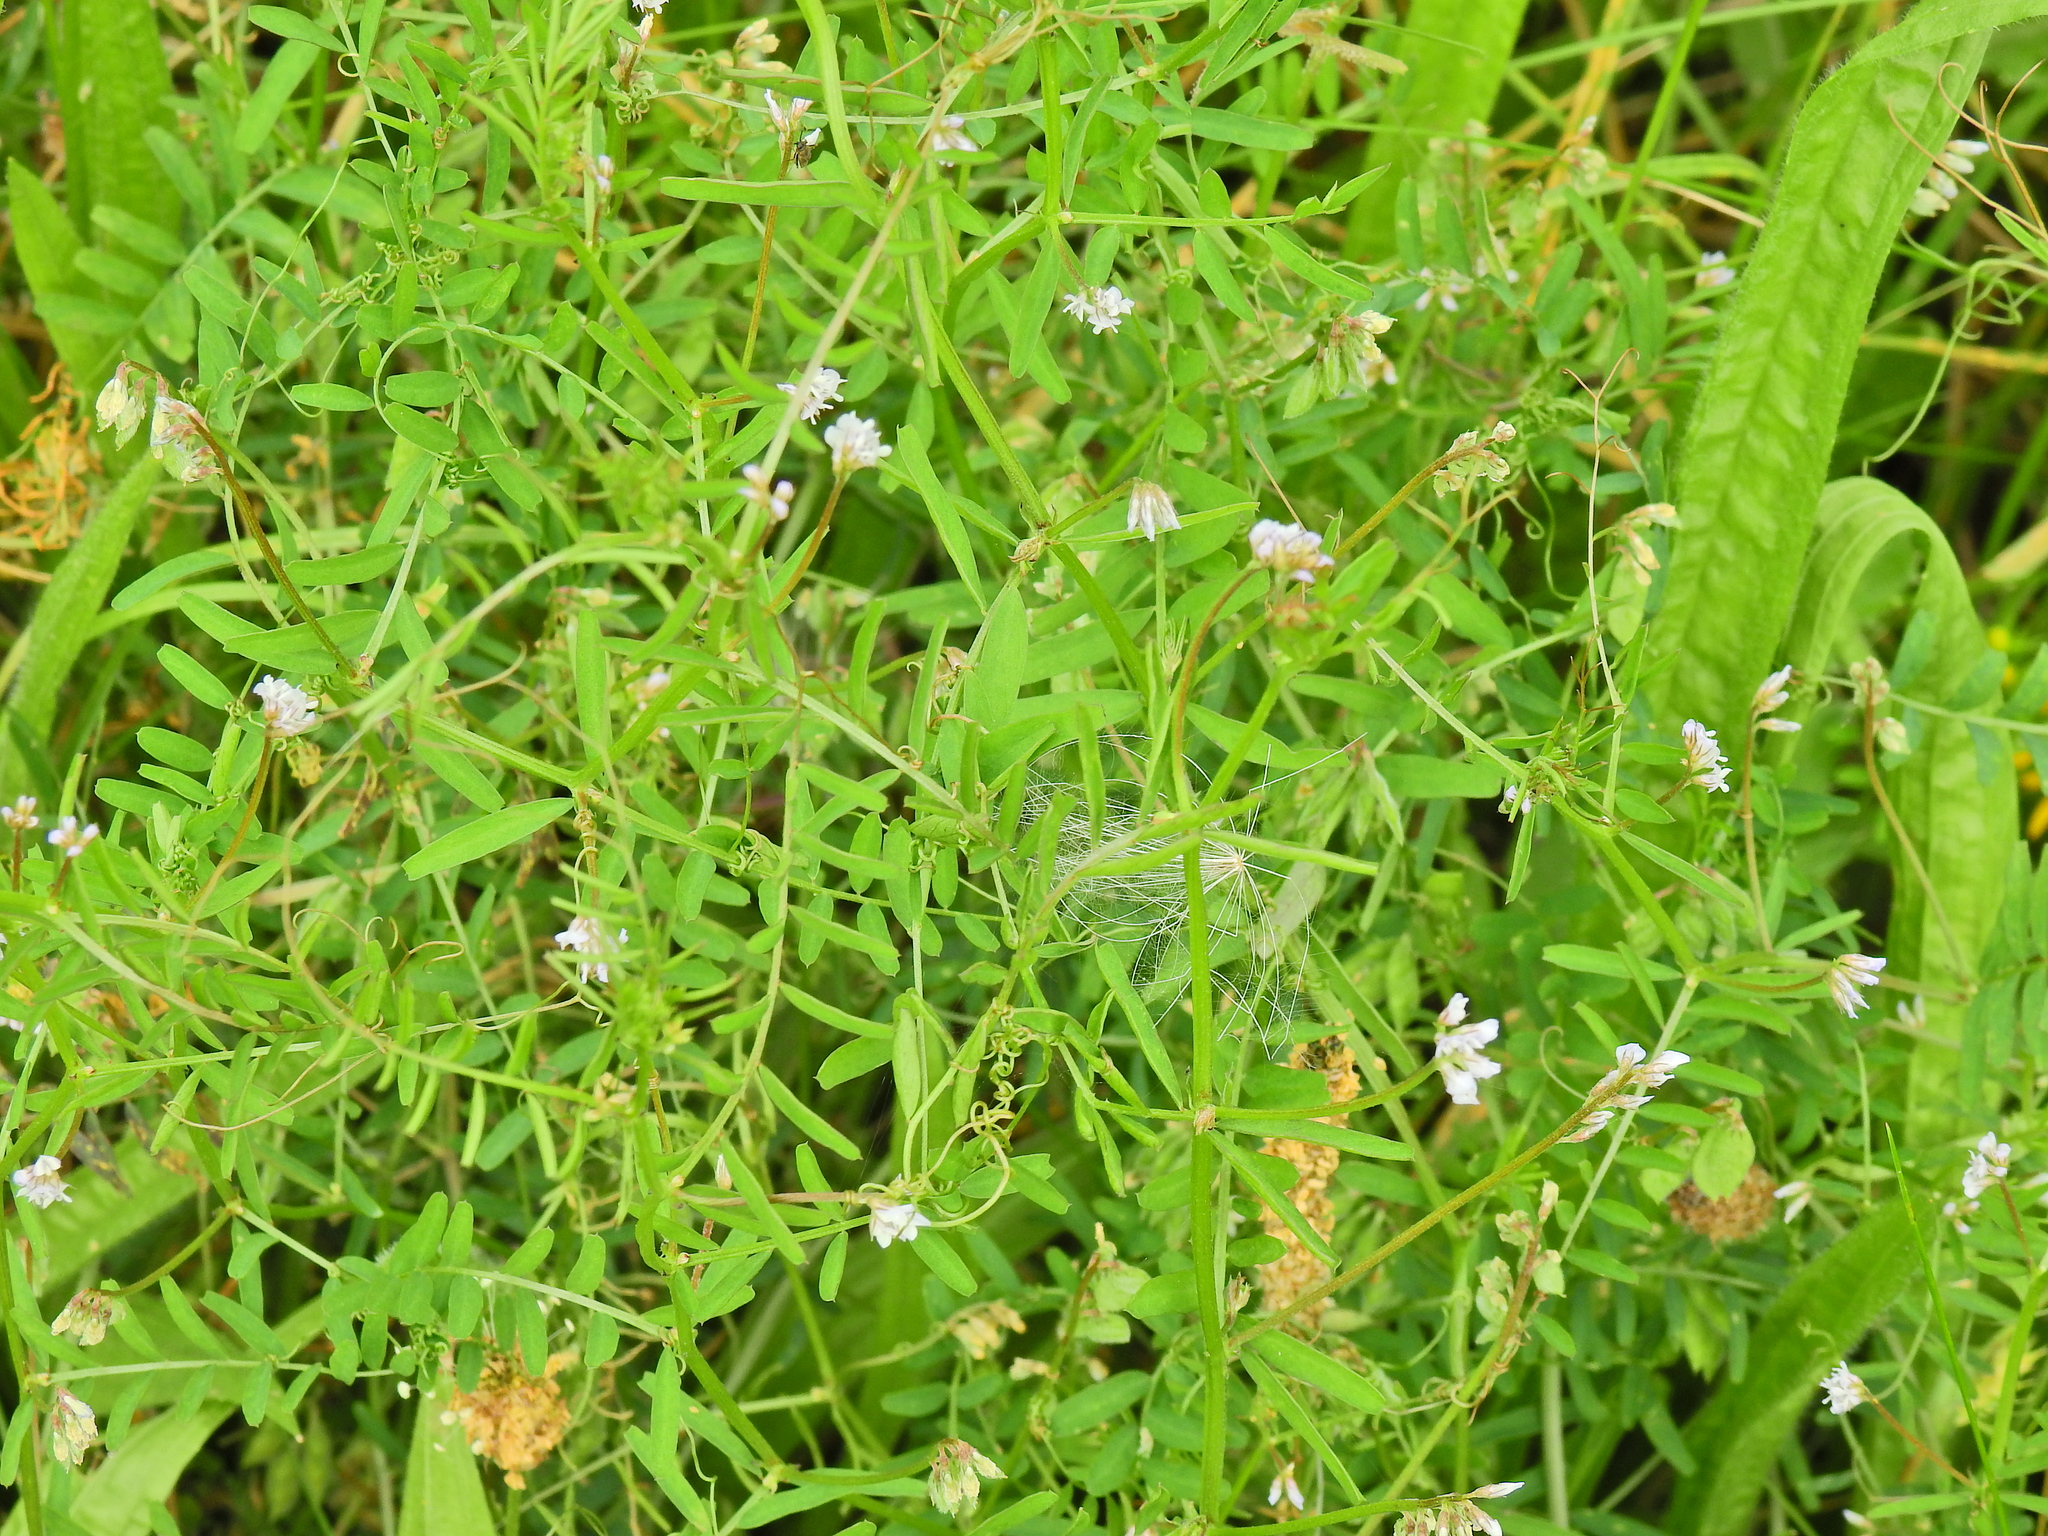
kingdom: Plantae
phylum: Tracheophyta
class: Magnoliopsida
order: Fabales
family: Fabaceae
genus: Vicia
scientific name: Vicia hirsuta
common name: Tiny vetch
